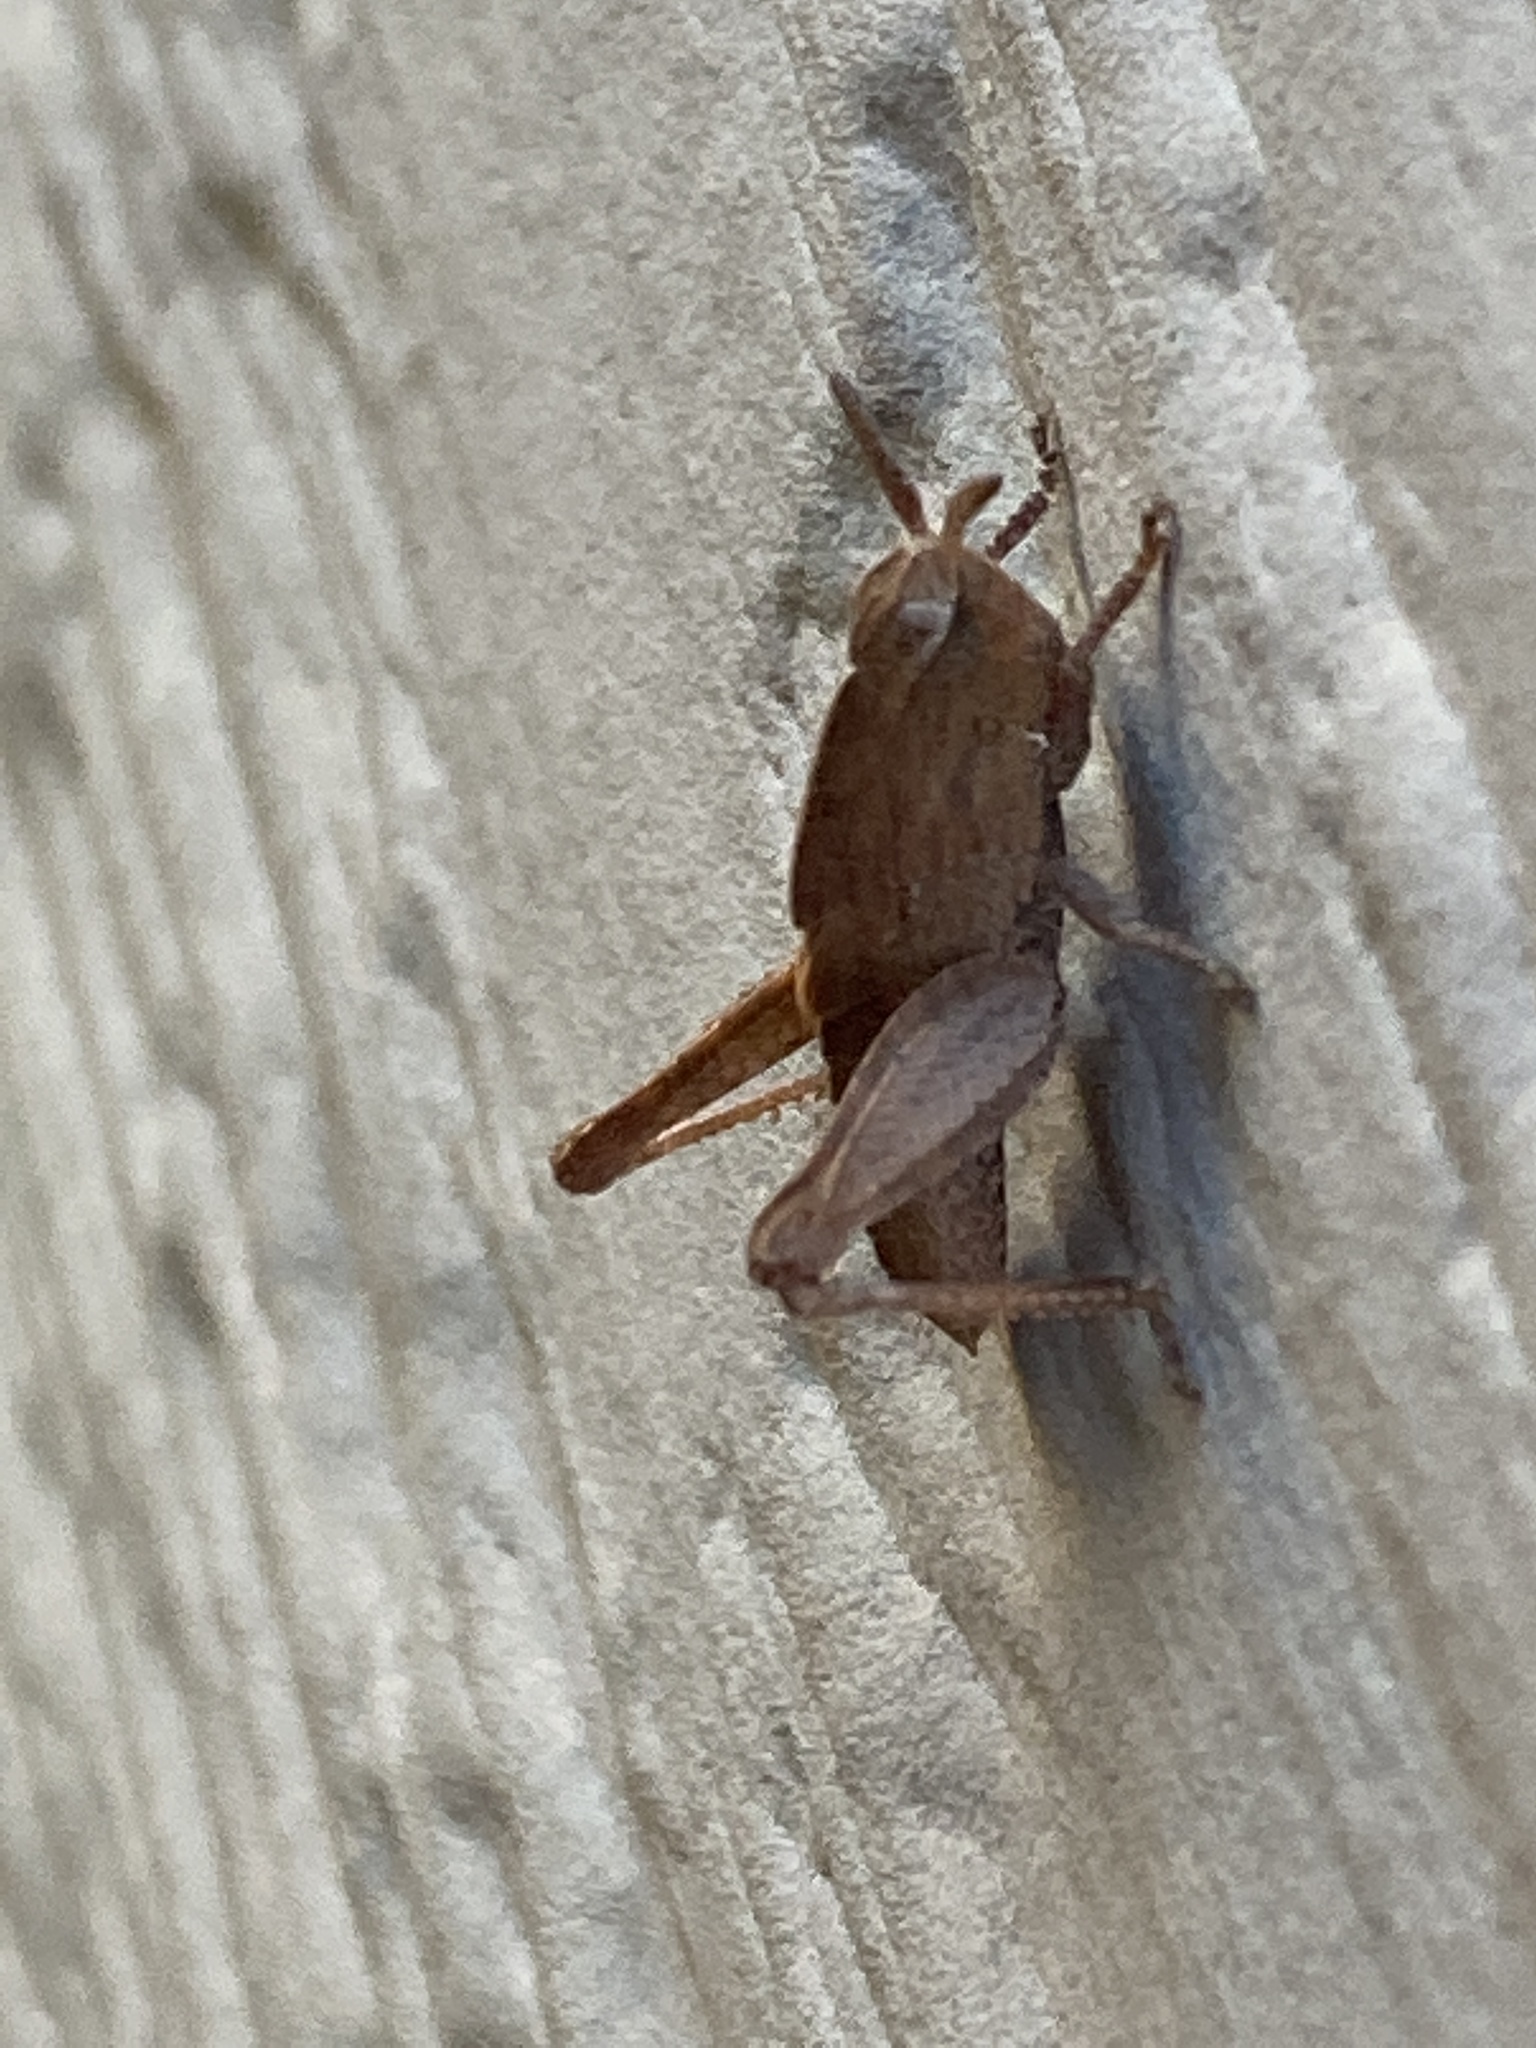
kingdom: Animalia
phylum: Arthropoda
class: Insecta
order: Orthoptera
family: Acrididae
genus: Chortophaga
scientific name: Chortophaga viridifasciata
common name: Green-striped grasshopper
